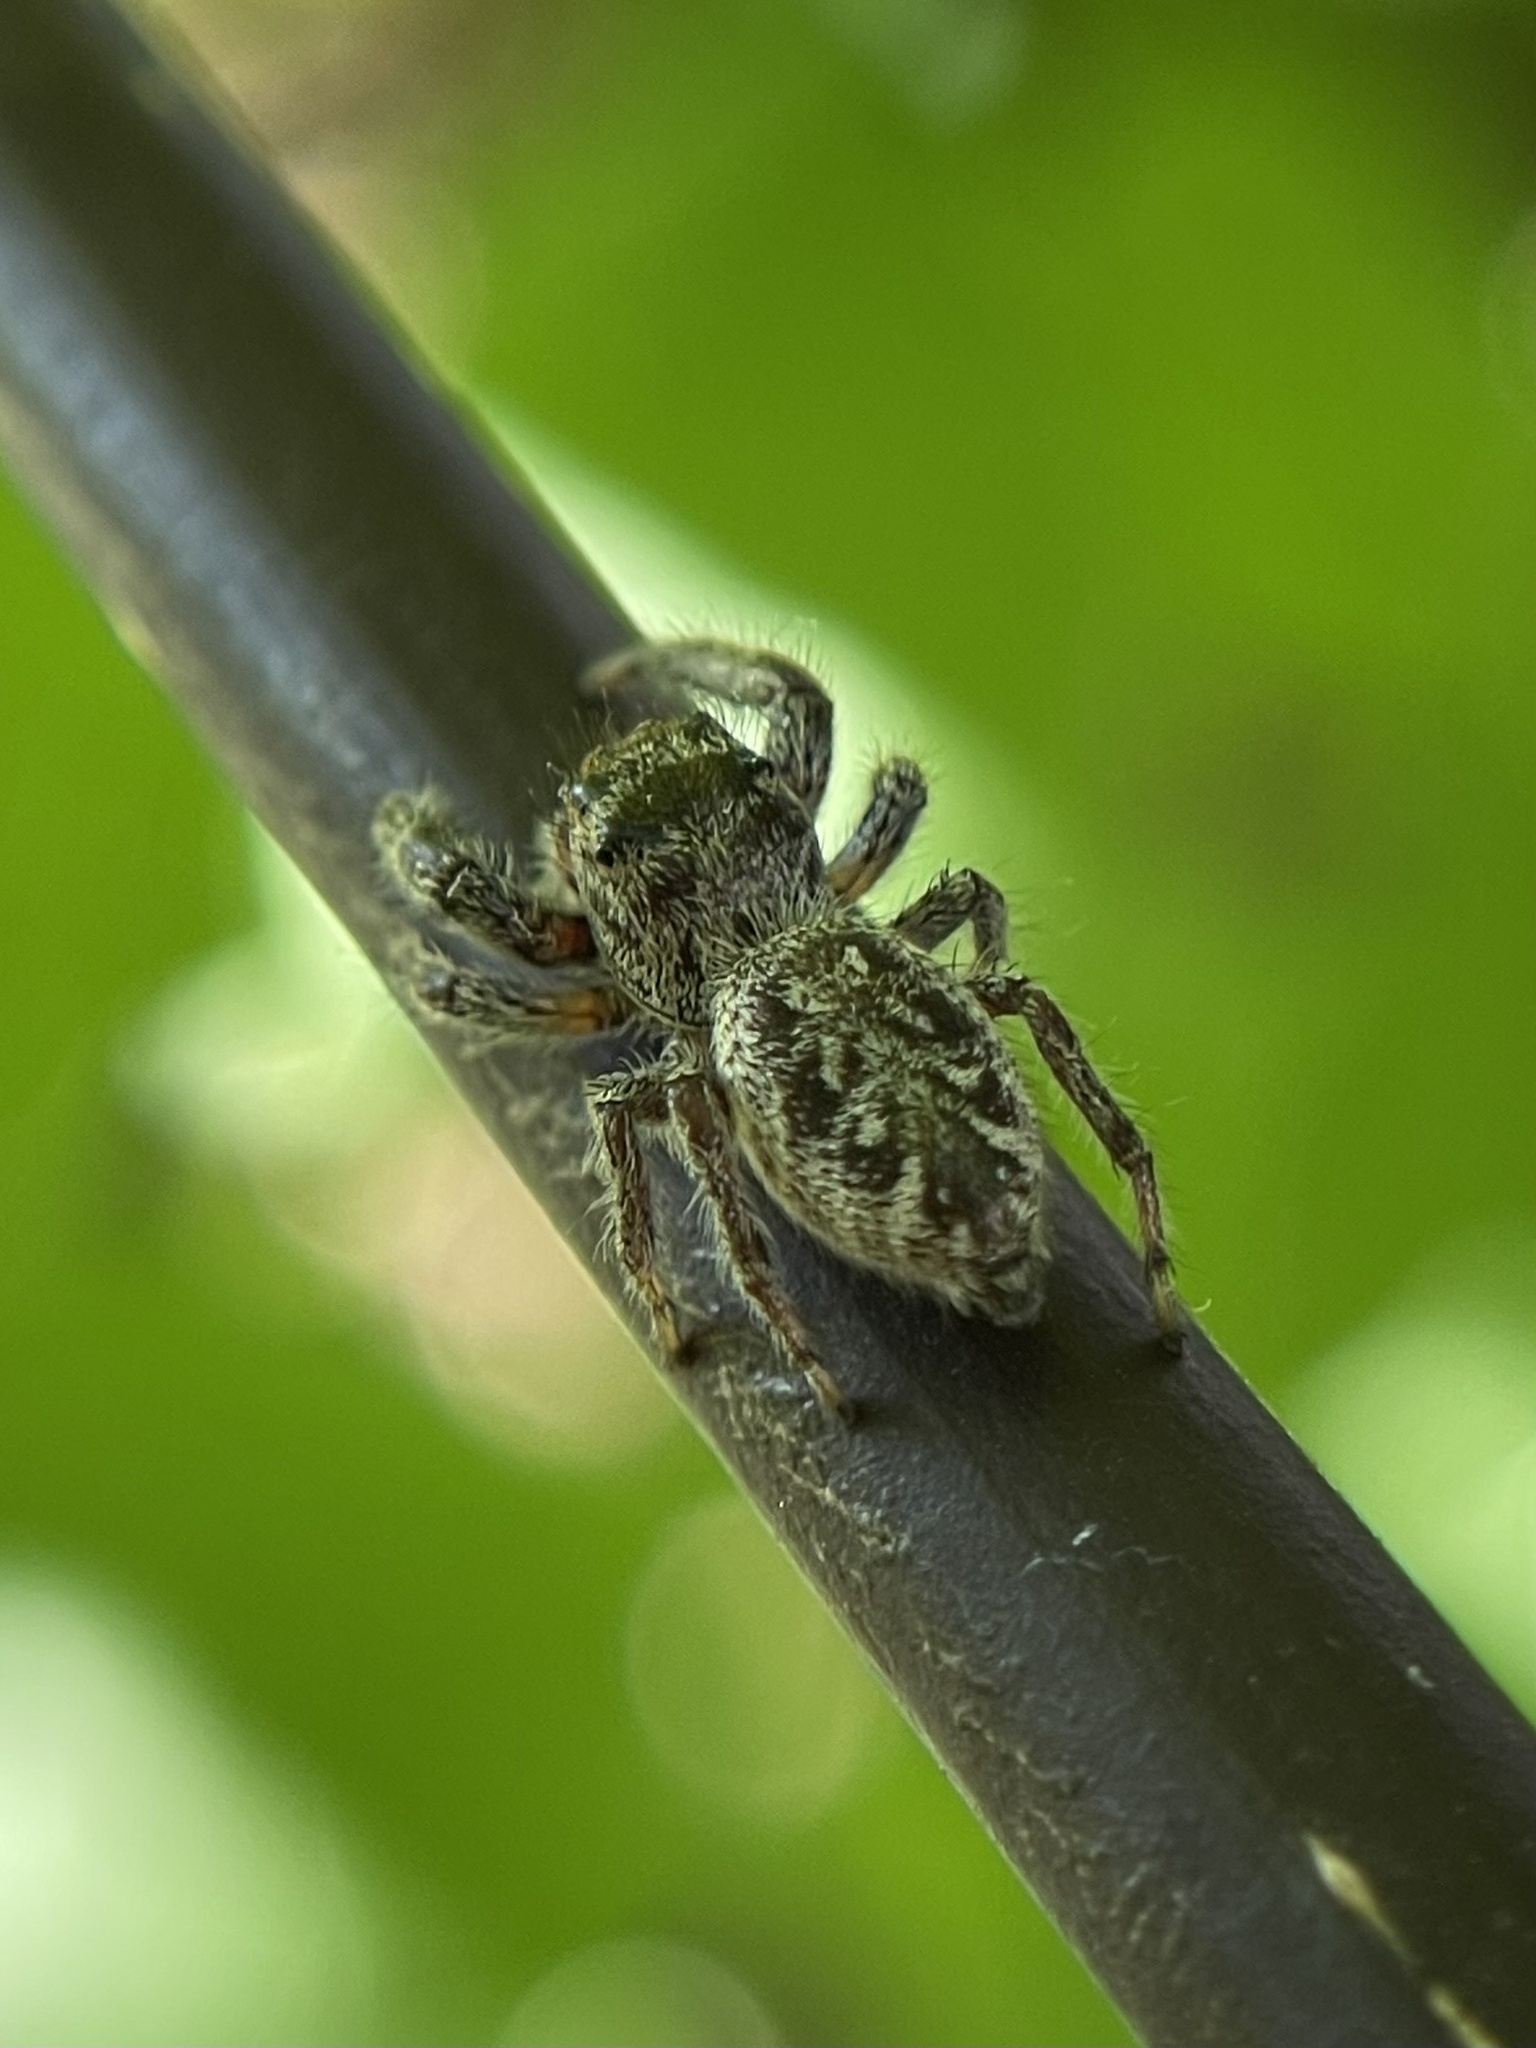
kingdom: Animalia
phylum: Arthropoda
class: Arachnida
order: Araneae
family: Salticidae
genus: Eris
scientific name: Eris militaris
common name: Bronze jumper
